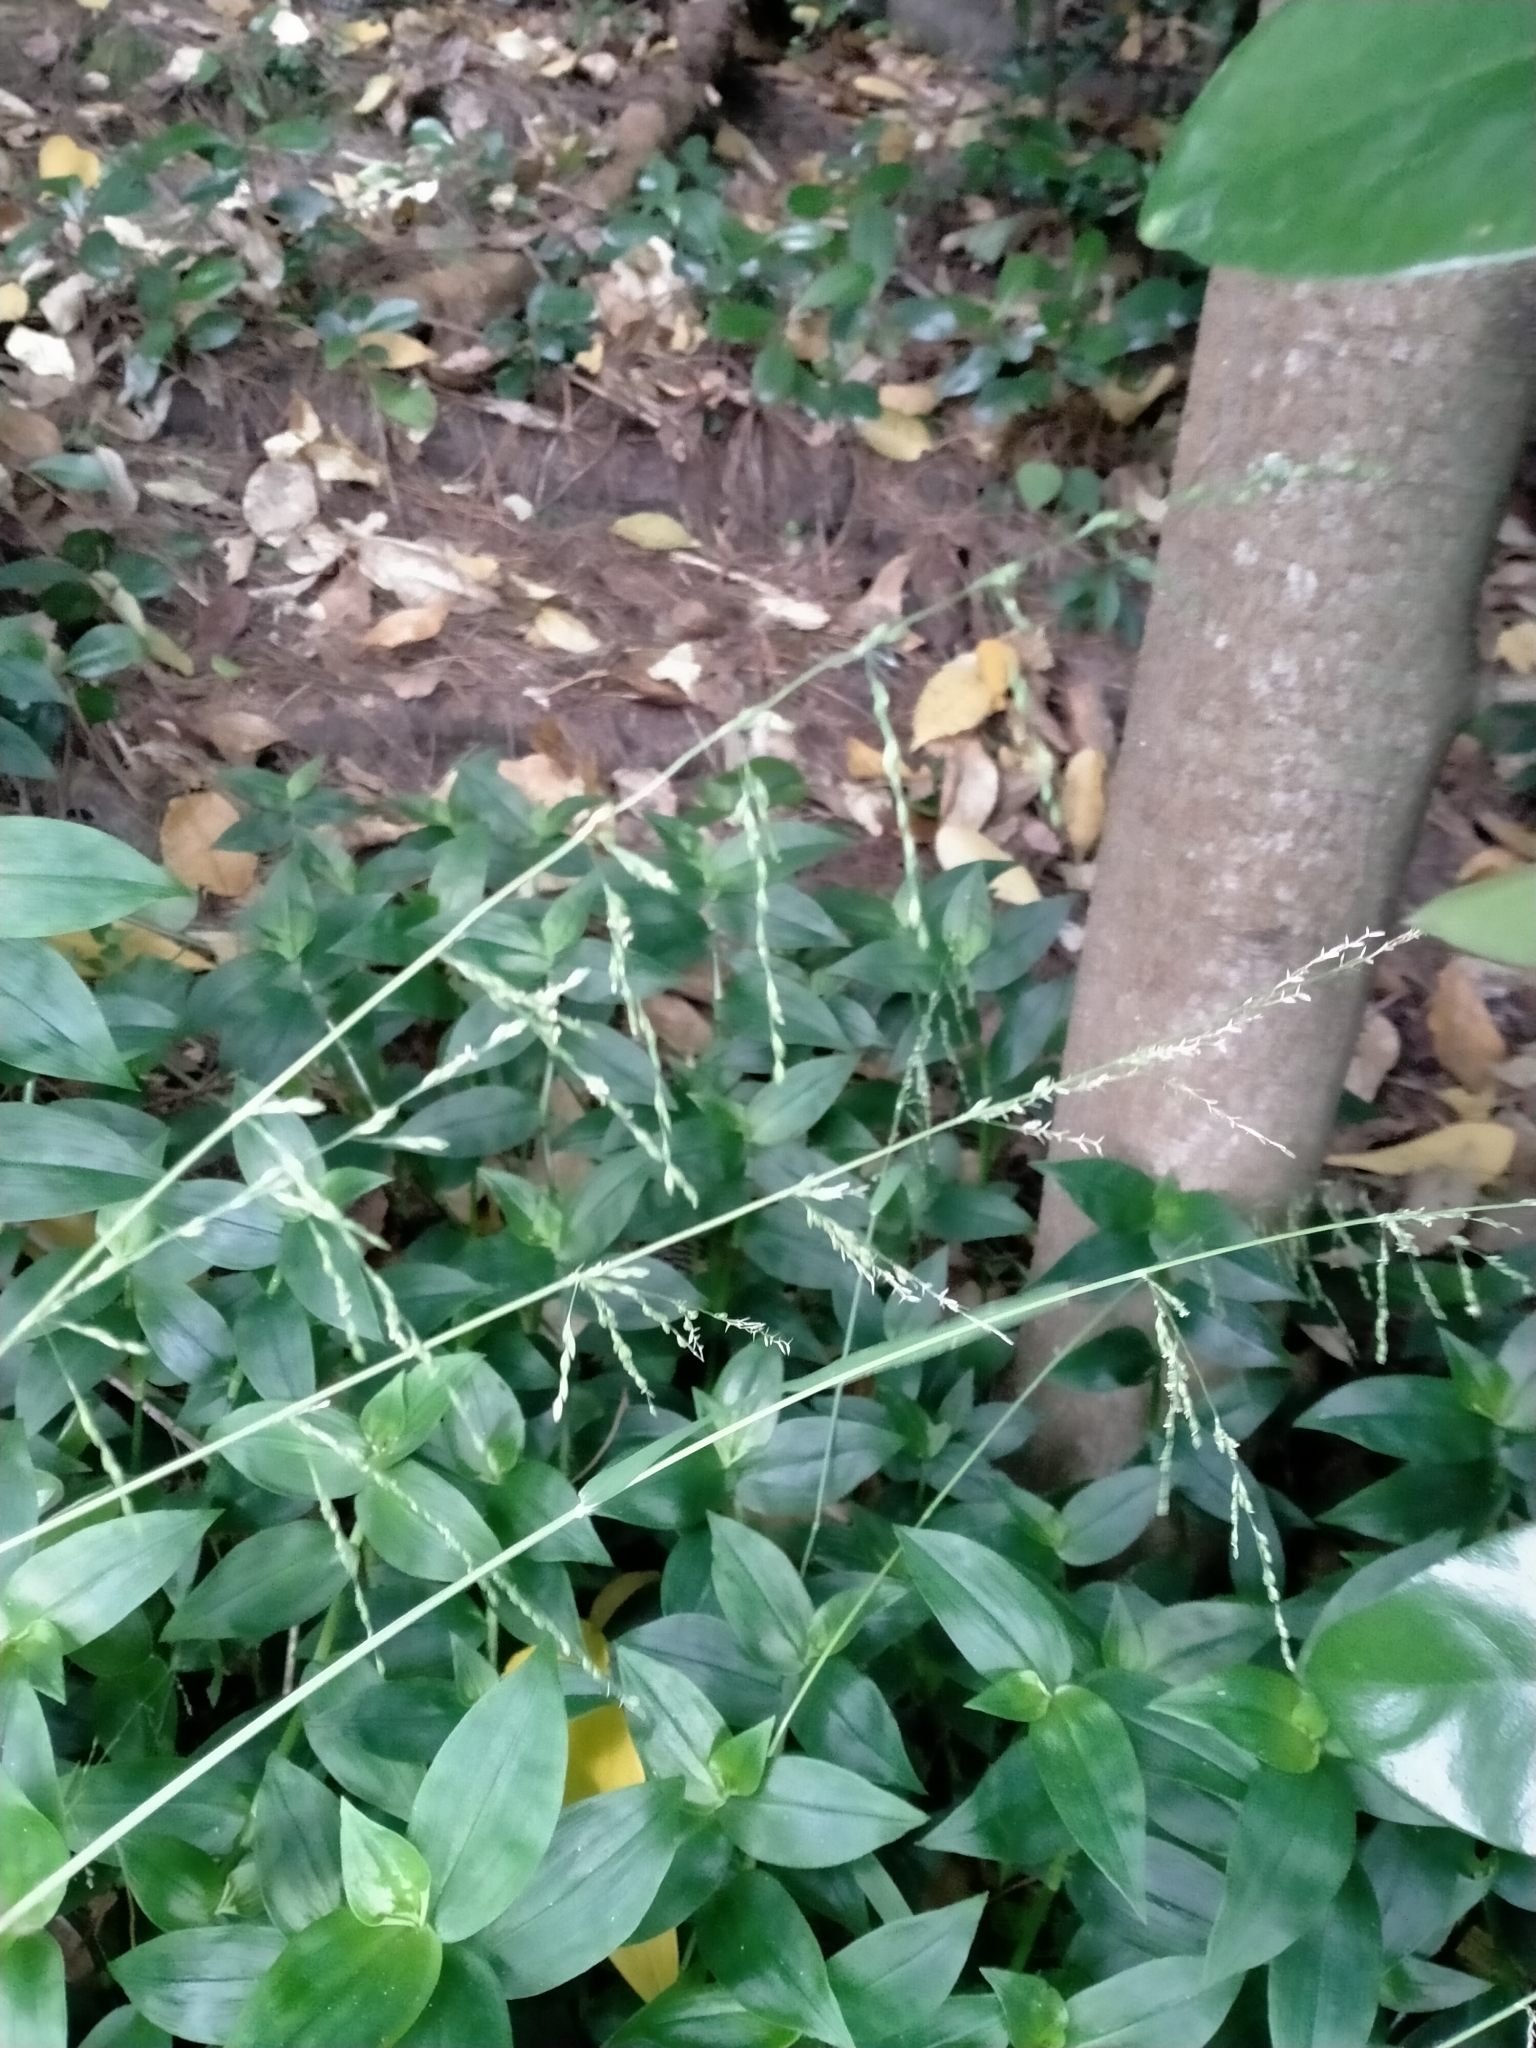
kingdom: Plantae
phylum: Tracheophyta
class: Liliopsida
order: Poales
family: Poaceae
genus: Ehrharta
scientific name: Ehrharta erecta
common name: Panic veldtgrass
